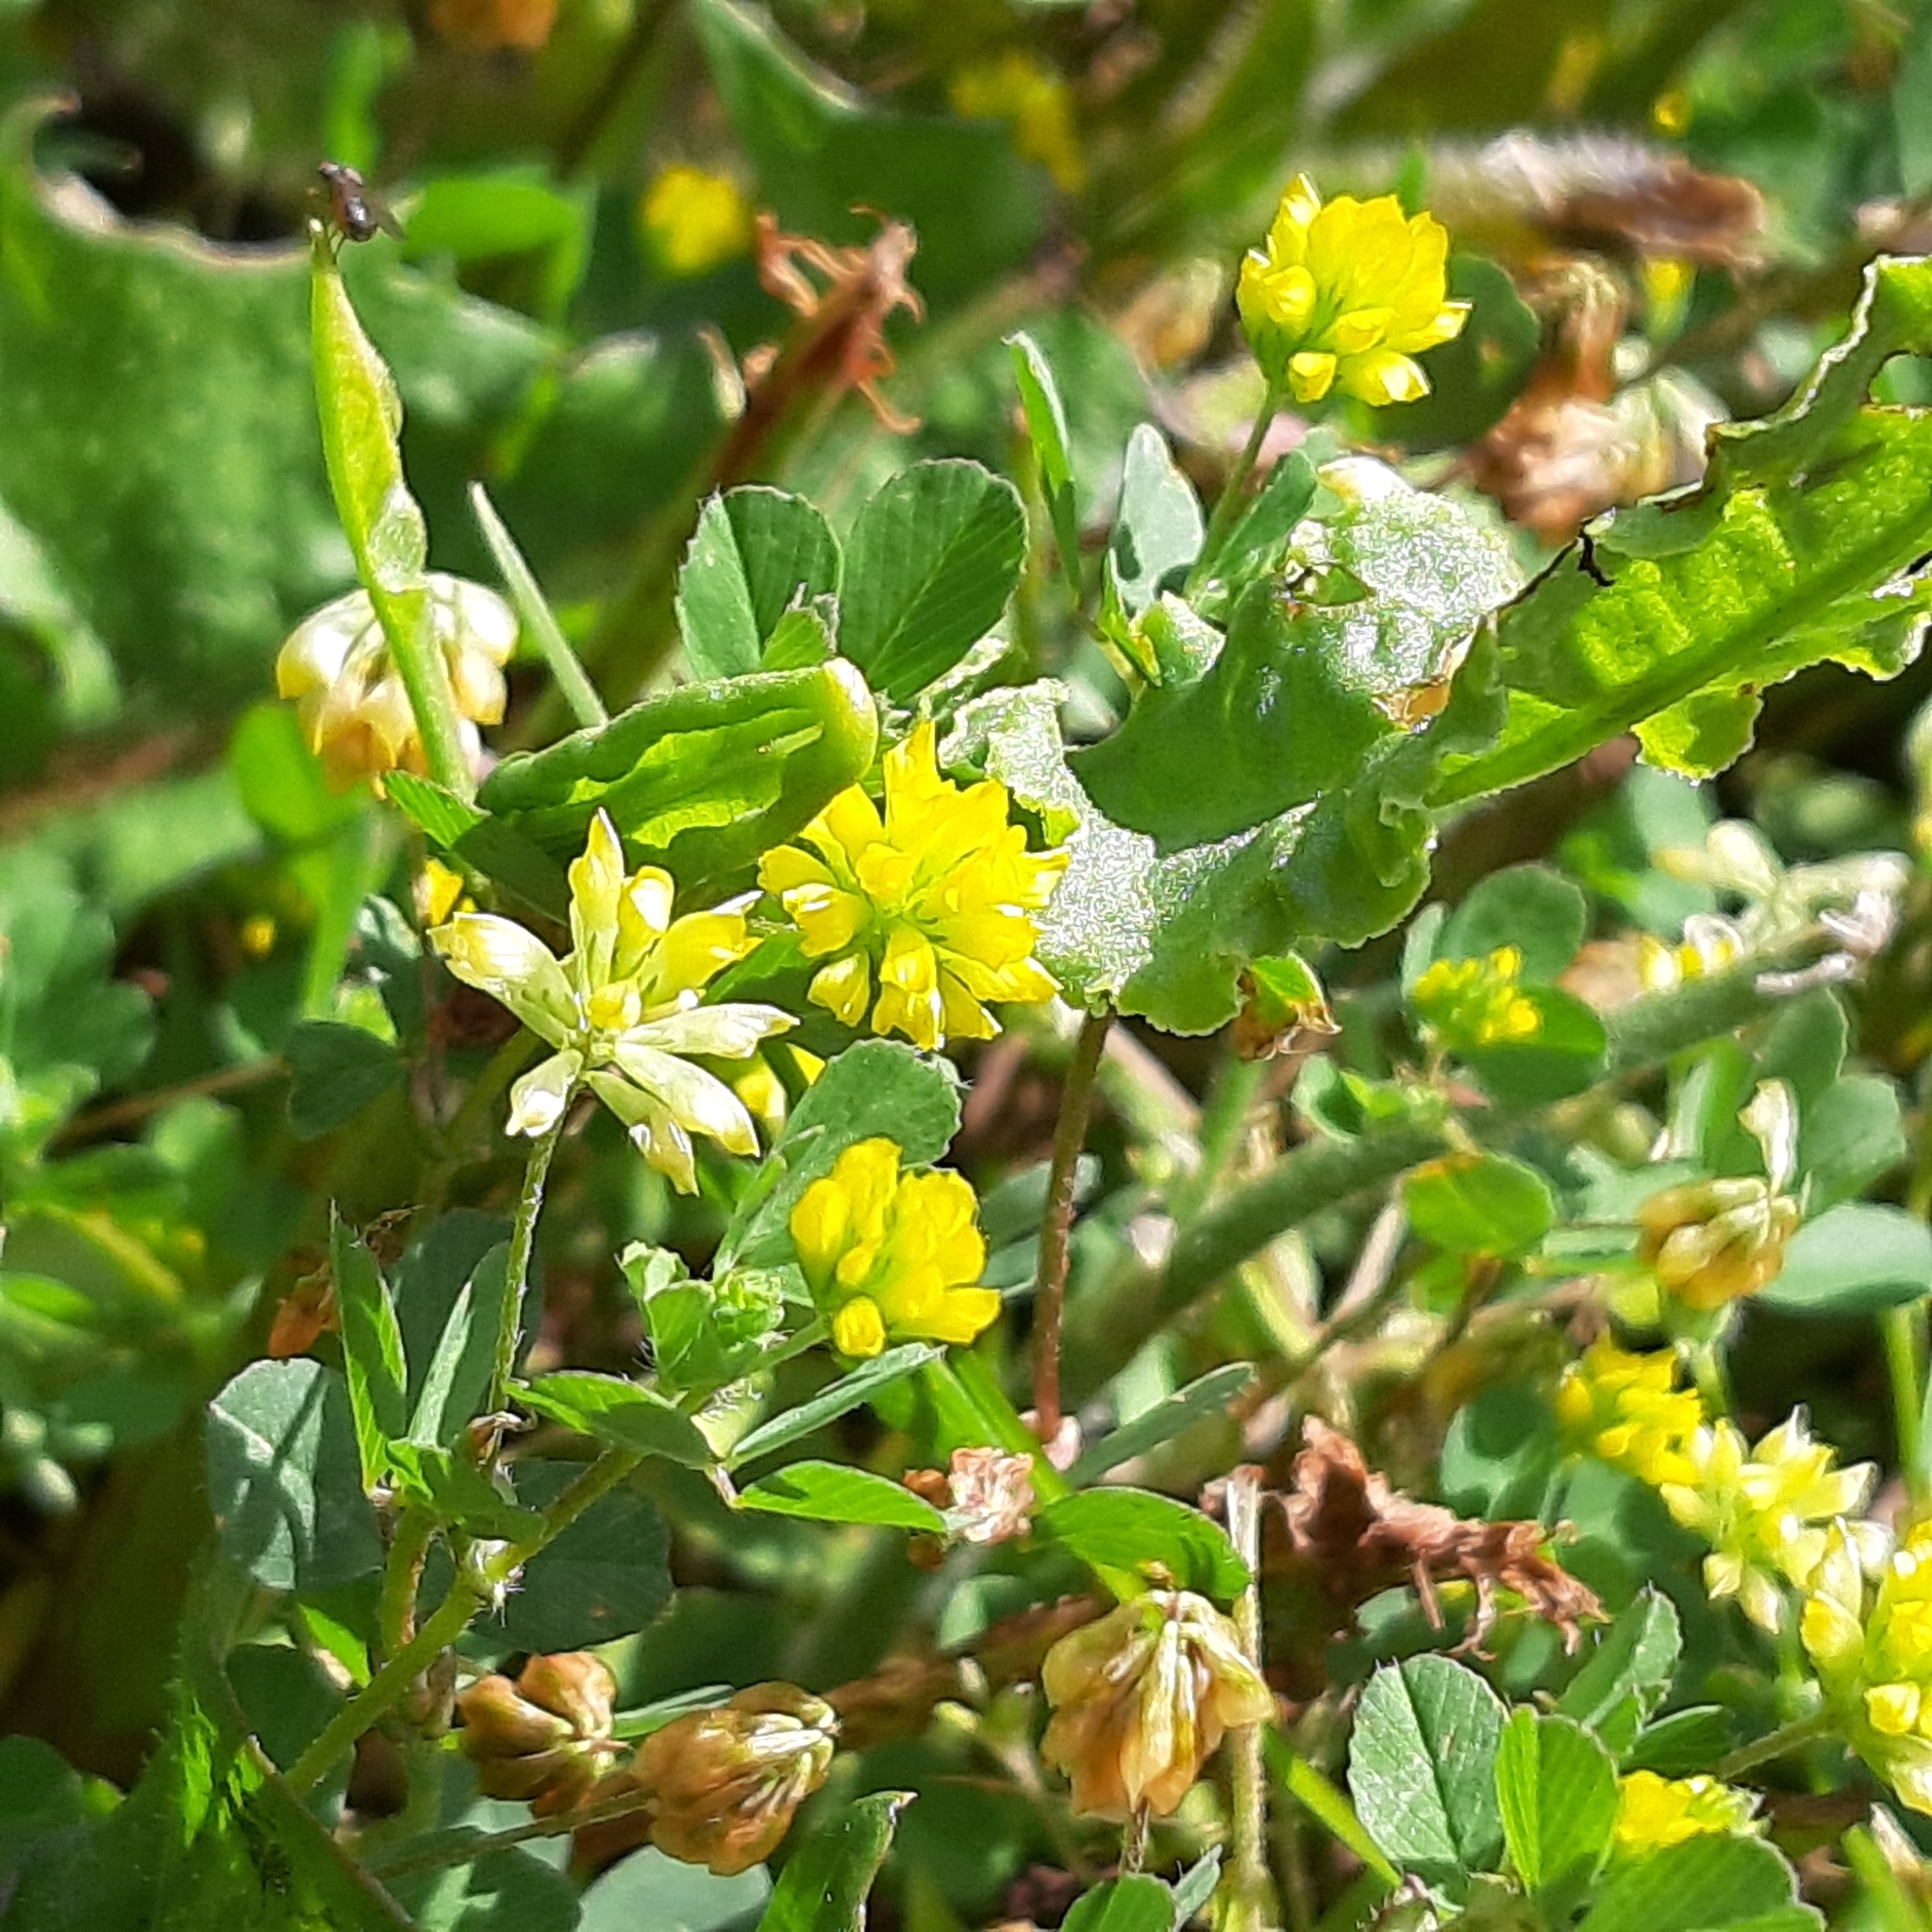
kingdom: Plantae
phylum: Tracheophyta
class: Magnoliopsida
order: Fabales
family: Fabaceae
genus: Trifolium
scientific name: Trifolium dubium
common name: Suckling clover
